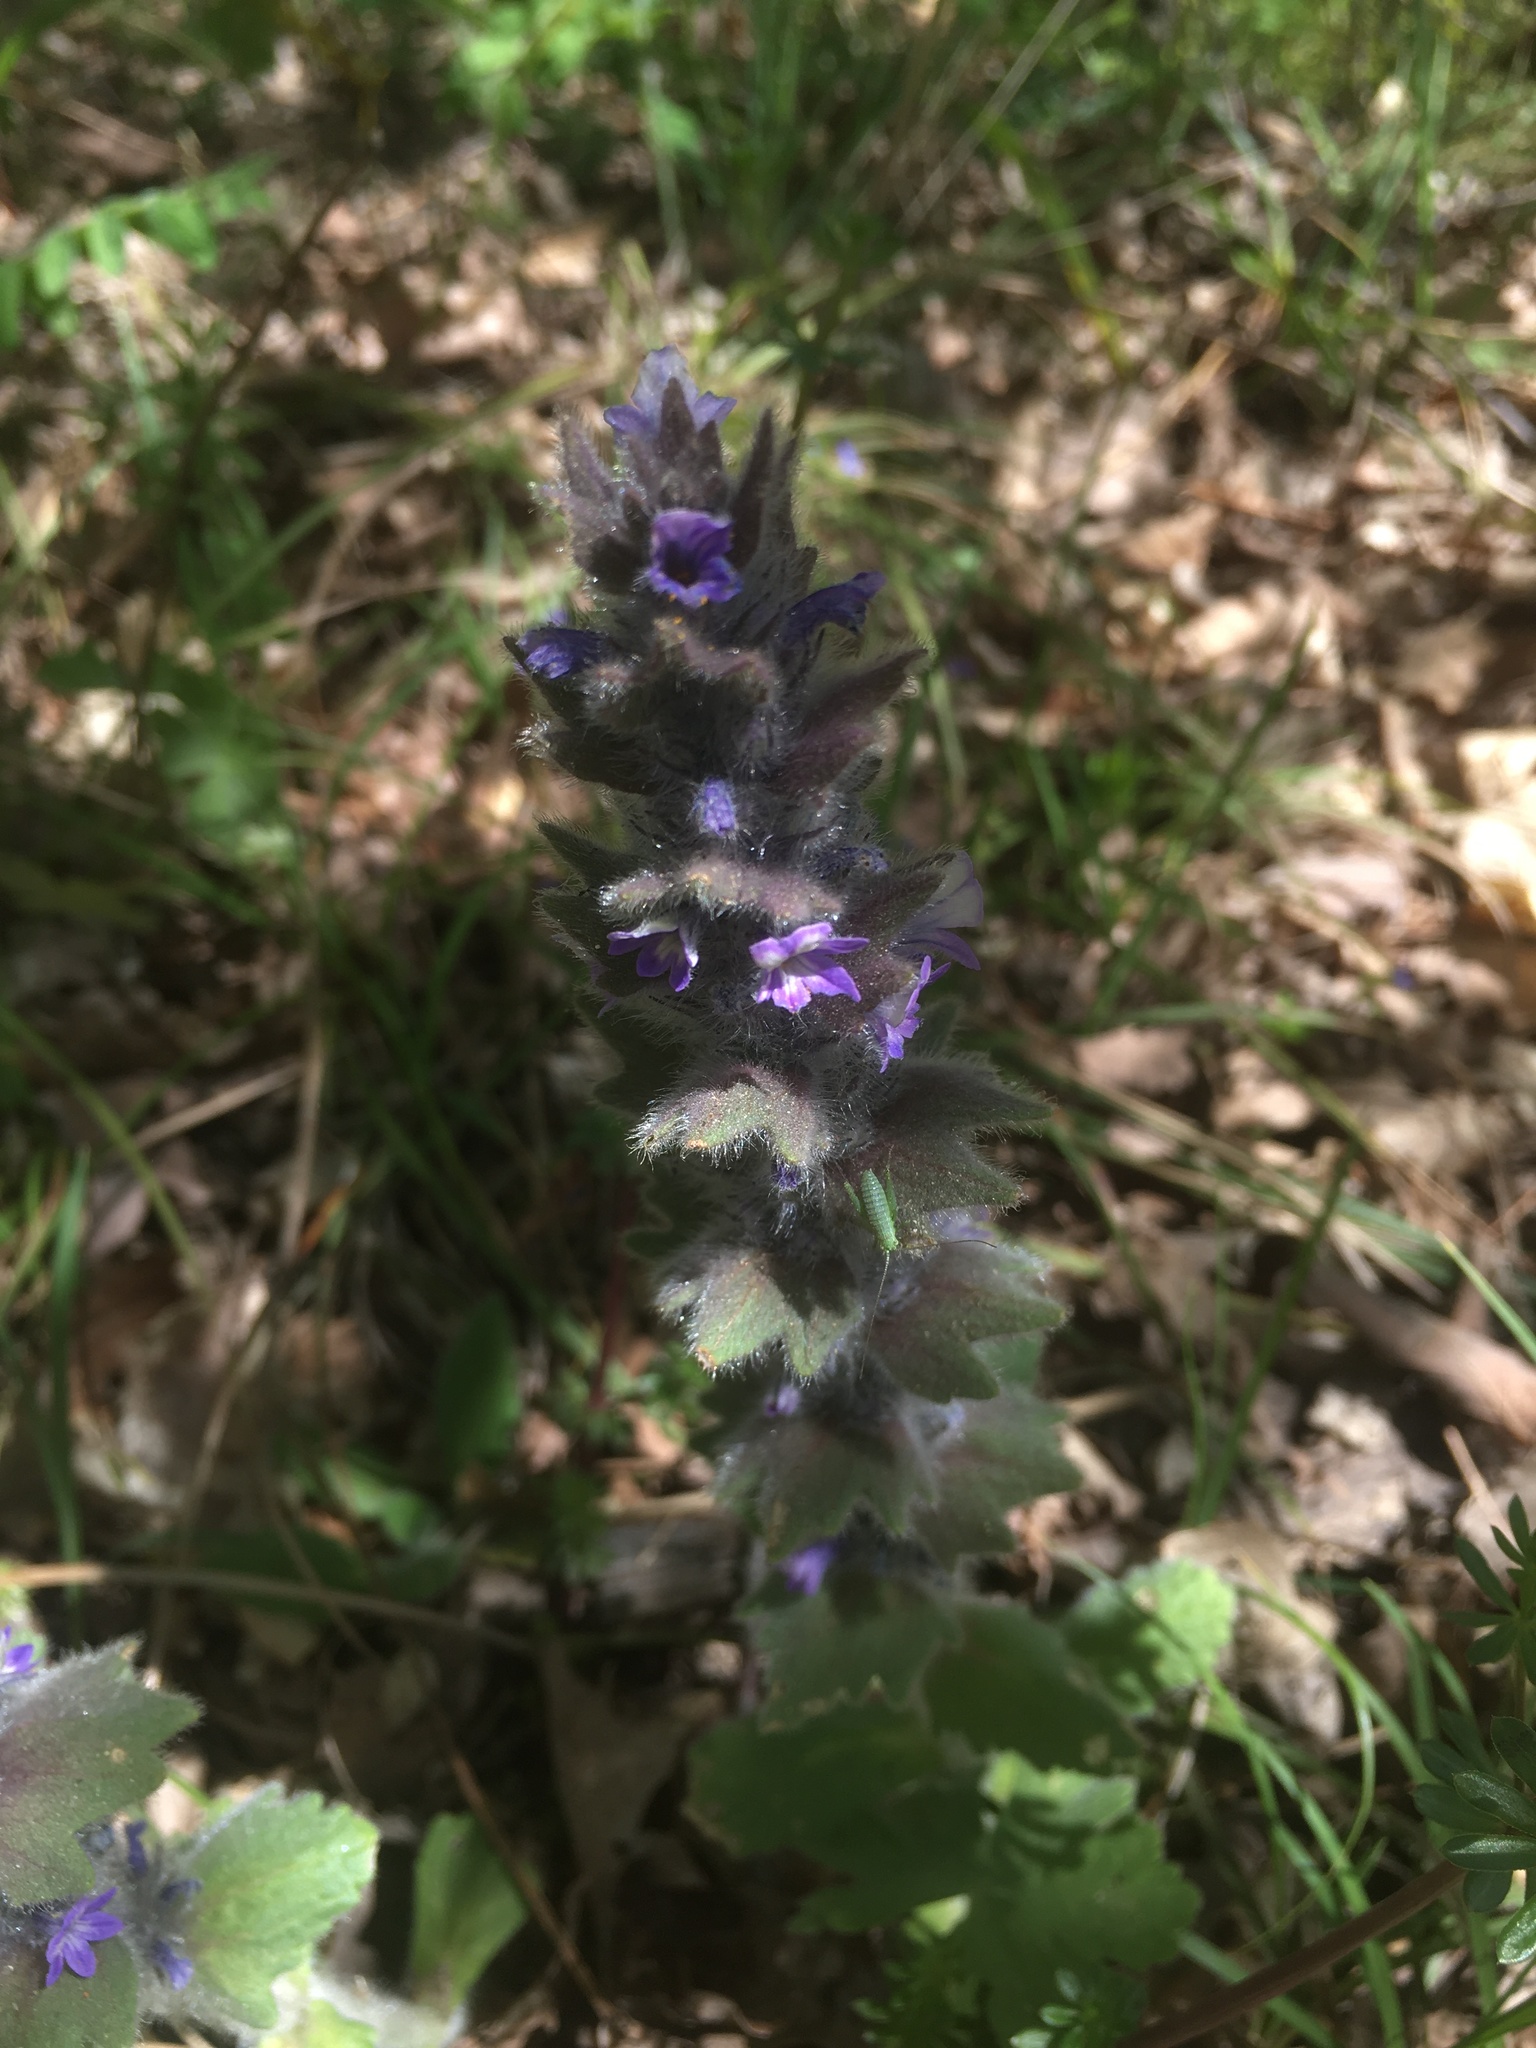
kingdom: Plantae
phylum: Tracheophyta
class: Magnoliopsida
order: Lamiales
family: Lamiaceae
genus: Ajuga
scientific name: Ajuga orientalis
